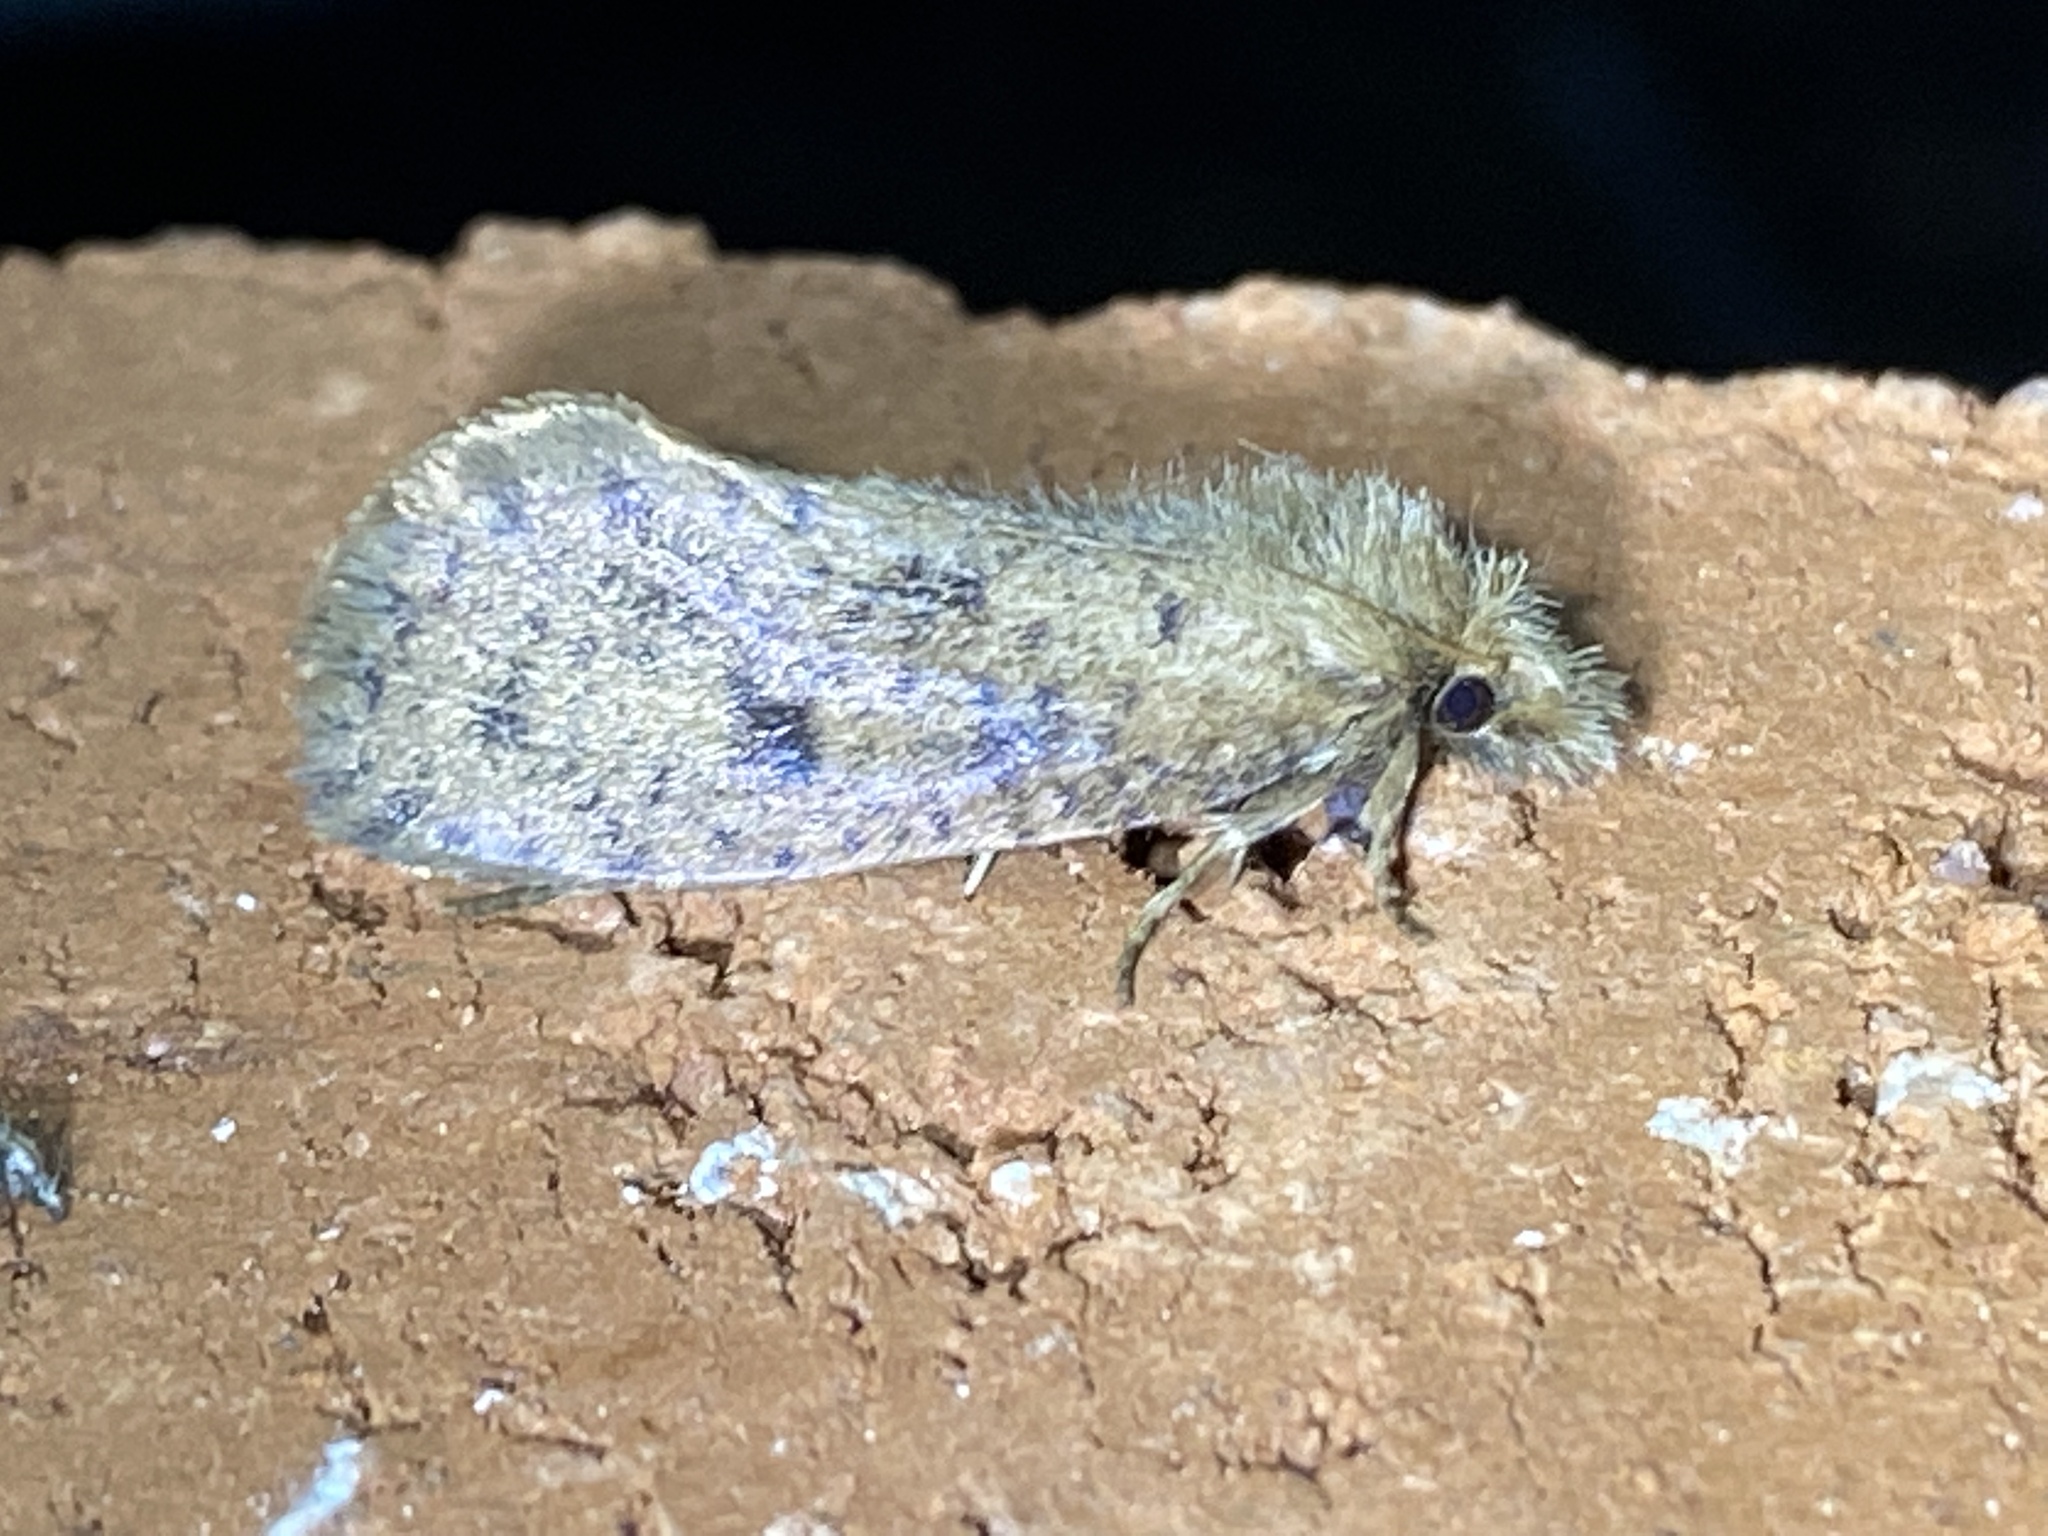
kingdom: Animalia
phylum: Arthropoda
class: Insecta
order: Lepidoptera
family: Tineidae
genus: Acrolophus
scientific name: Acrolophus propinqua
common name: Walsingham's grass tubeworm moth
